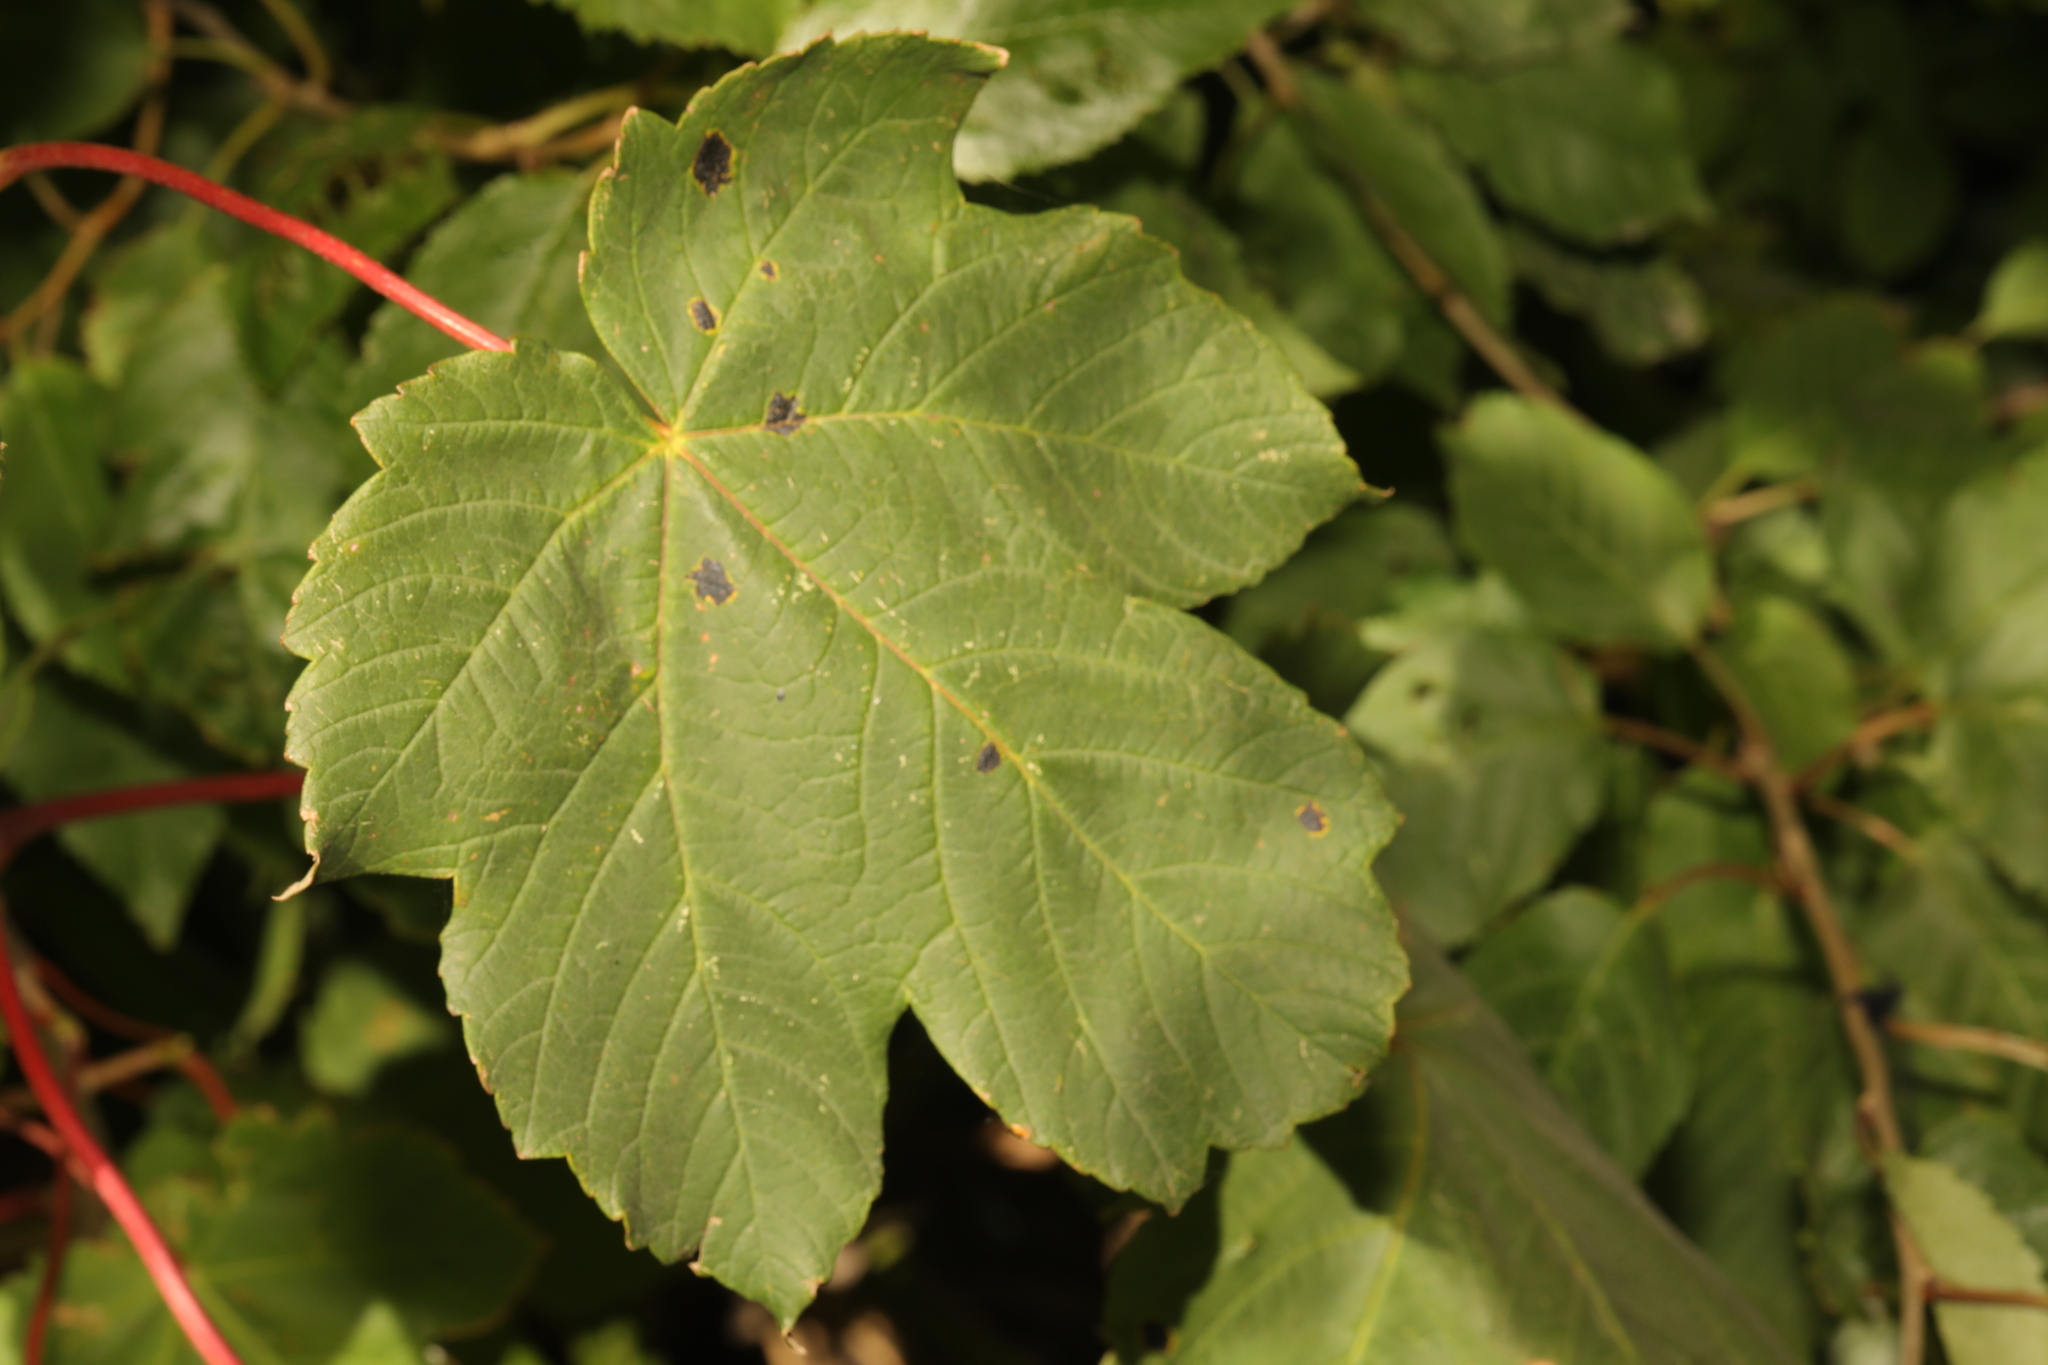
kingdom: Plantae
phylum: Tracheophyta
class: Magnoliopsida
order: Sapindales
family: Sapindaceae
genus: Acer
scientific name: Acer pseudoplatanus
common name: Sycamore
